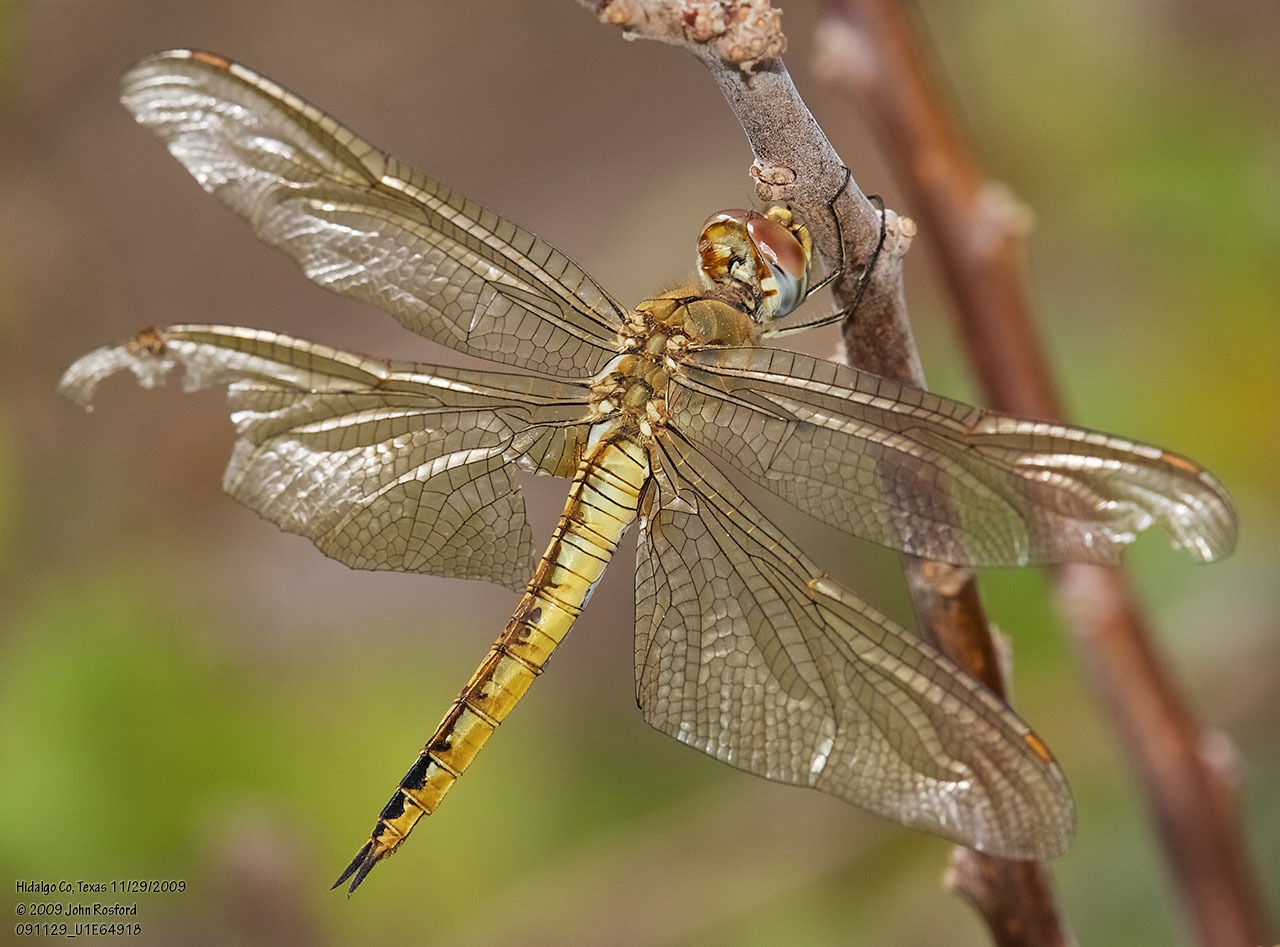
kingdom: Animalia
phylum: Arthropoda
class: Insecta
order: Odonata
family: Libellulidae
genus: Pantala
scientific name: Pantala flavescens
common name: Wandering glider
